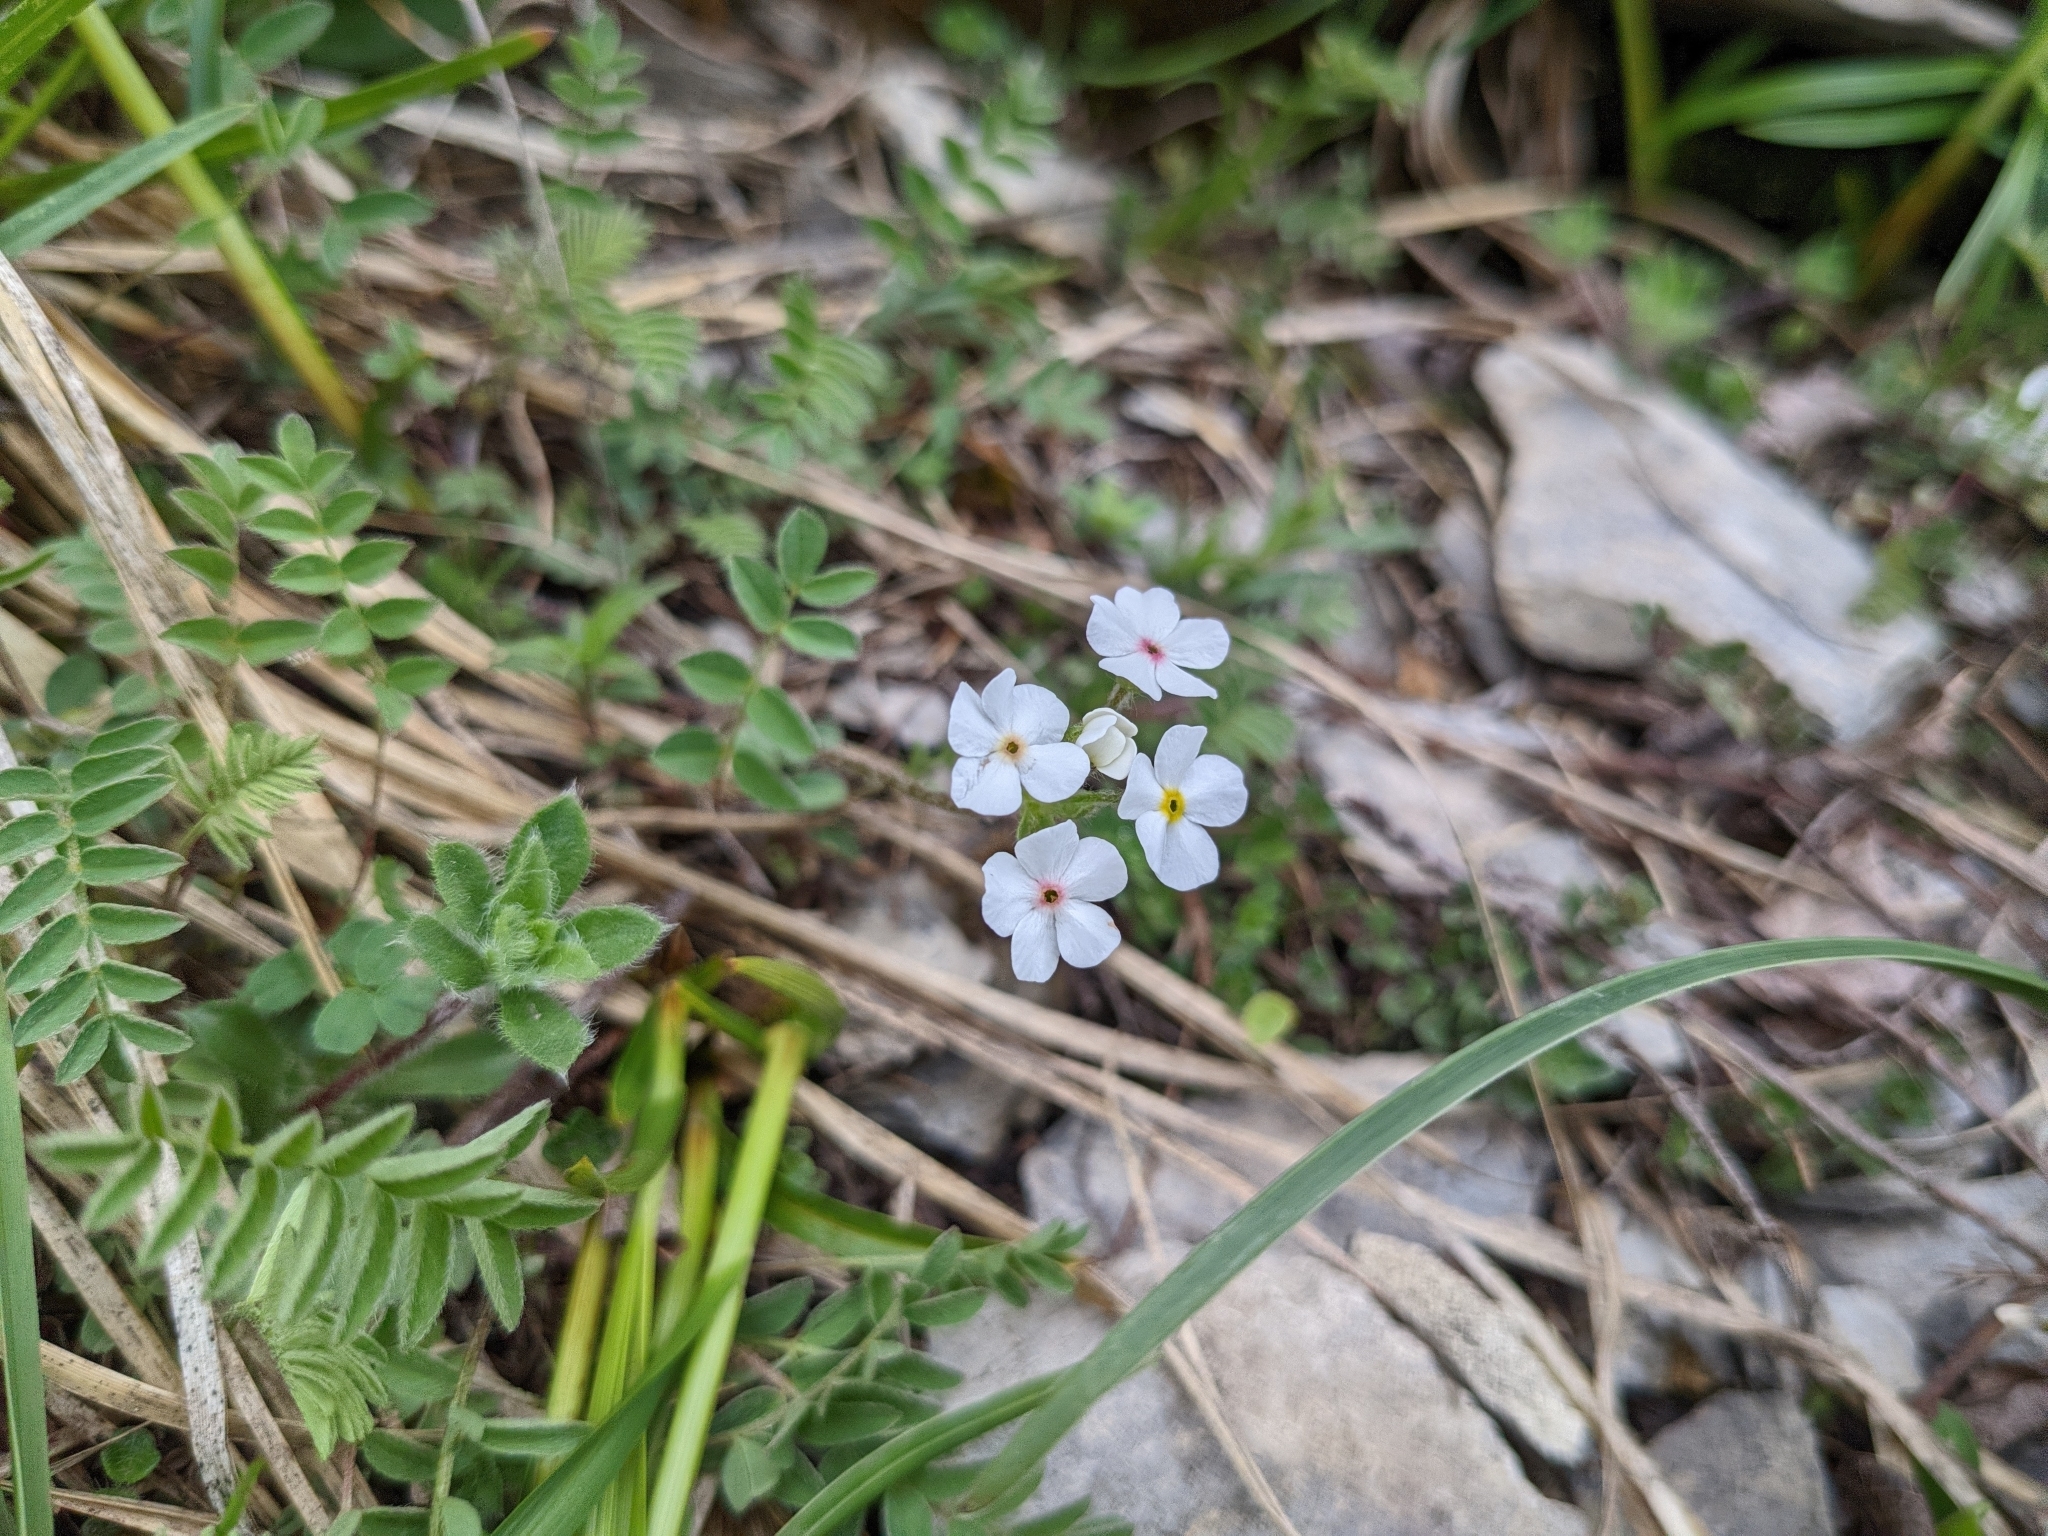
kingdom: Plantae
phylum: Tracheophyta
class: Magnoliopsida
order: Ericales
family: Primulaceae
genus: Androsace
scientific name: Androsace chamaejasme
